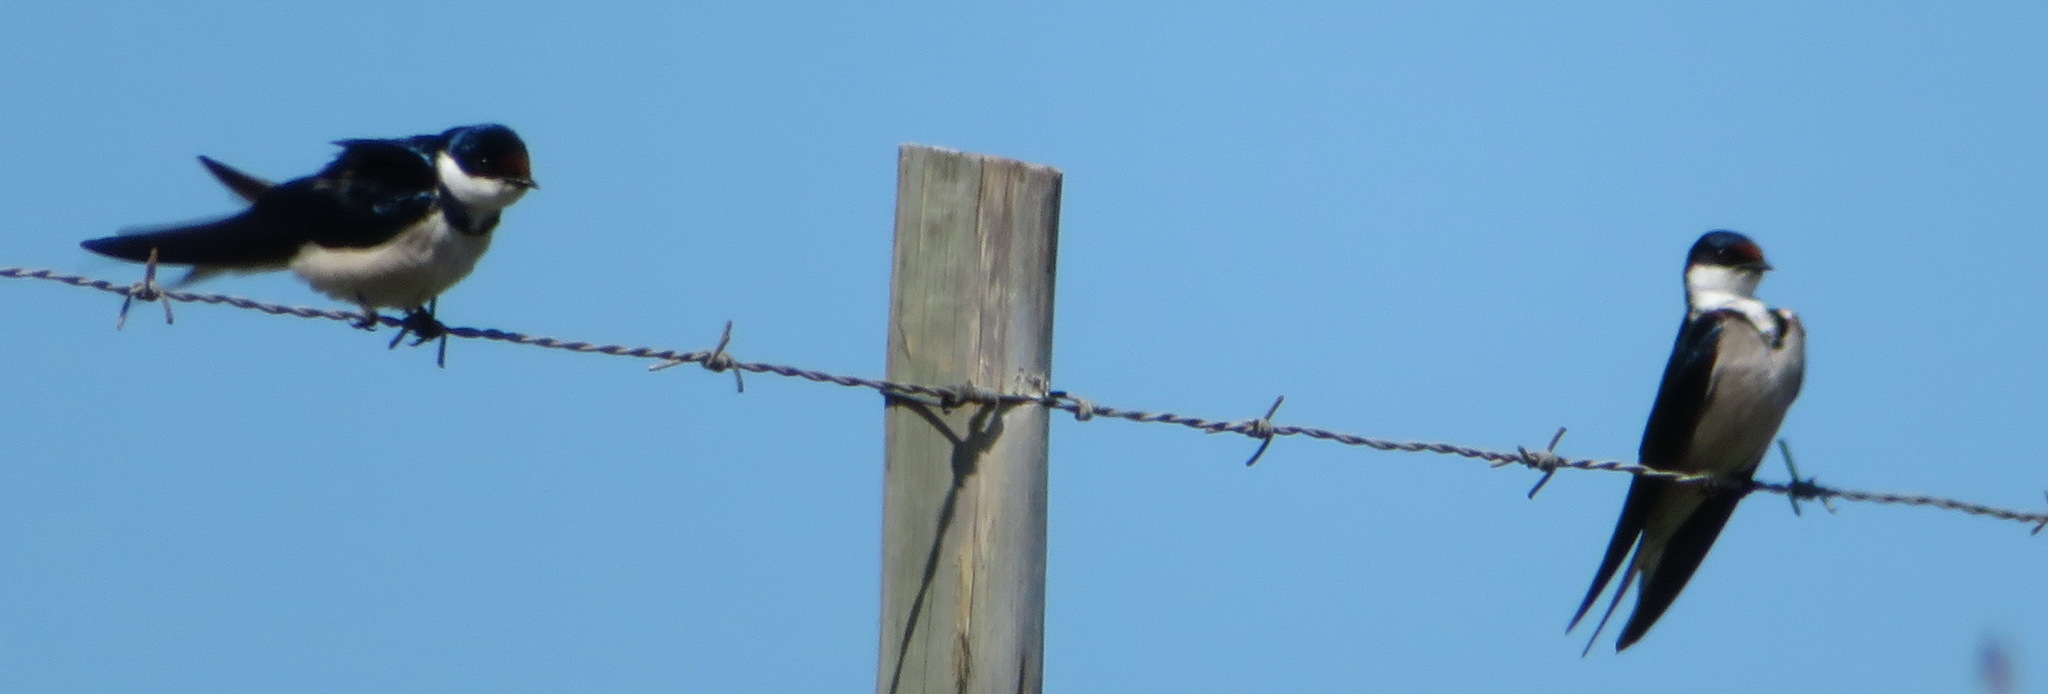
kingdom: Animalia
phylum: Chordata
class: Aves
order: Passeriformes
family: Hirundinidae
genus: Hirundo
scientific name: Hirundo albigularis
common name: White-throated swallow
